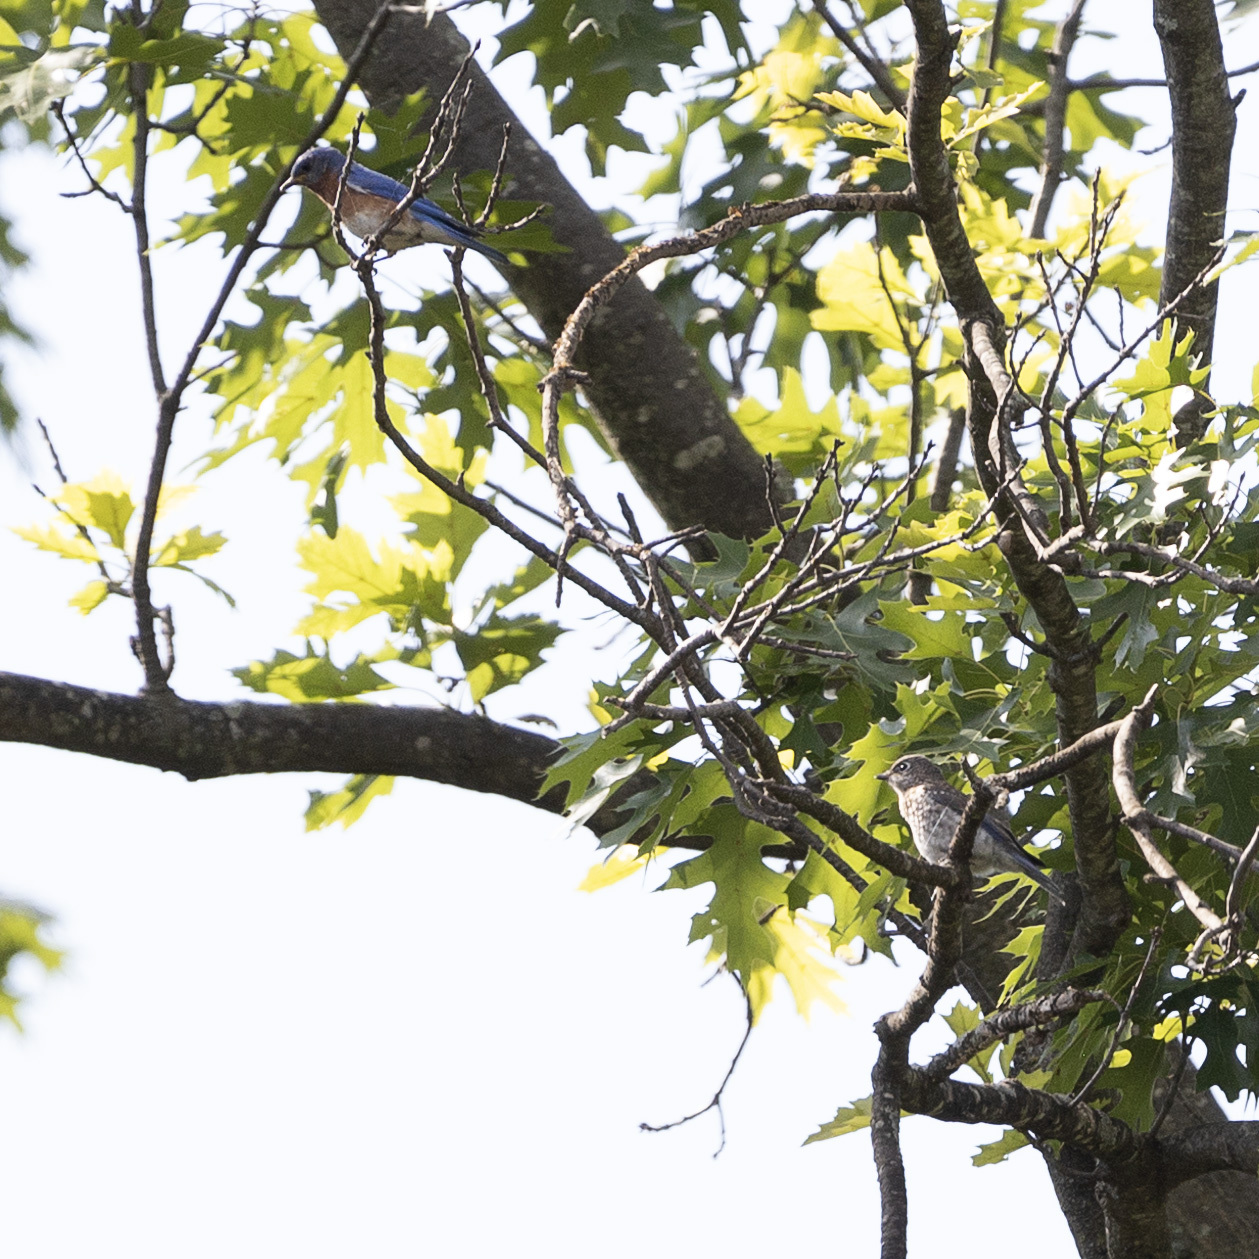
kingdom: Animalia
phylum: Chordata
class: Aves
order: Passeriformes
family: Turdidae
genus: Sialia
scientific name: Sialia sialis
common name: Eastern bluebird
